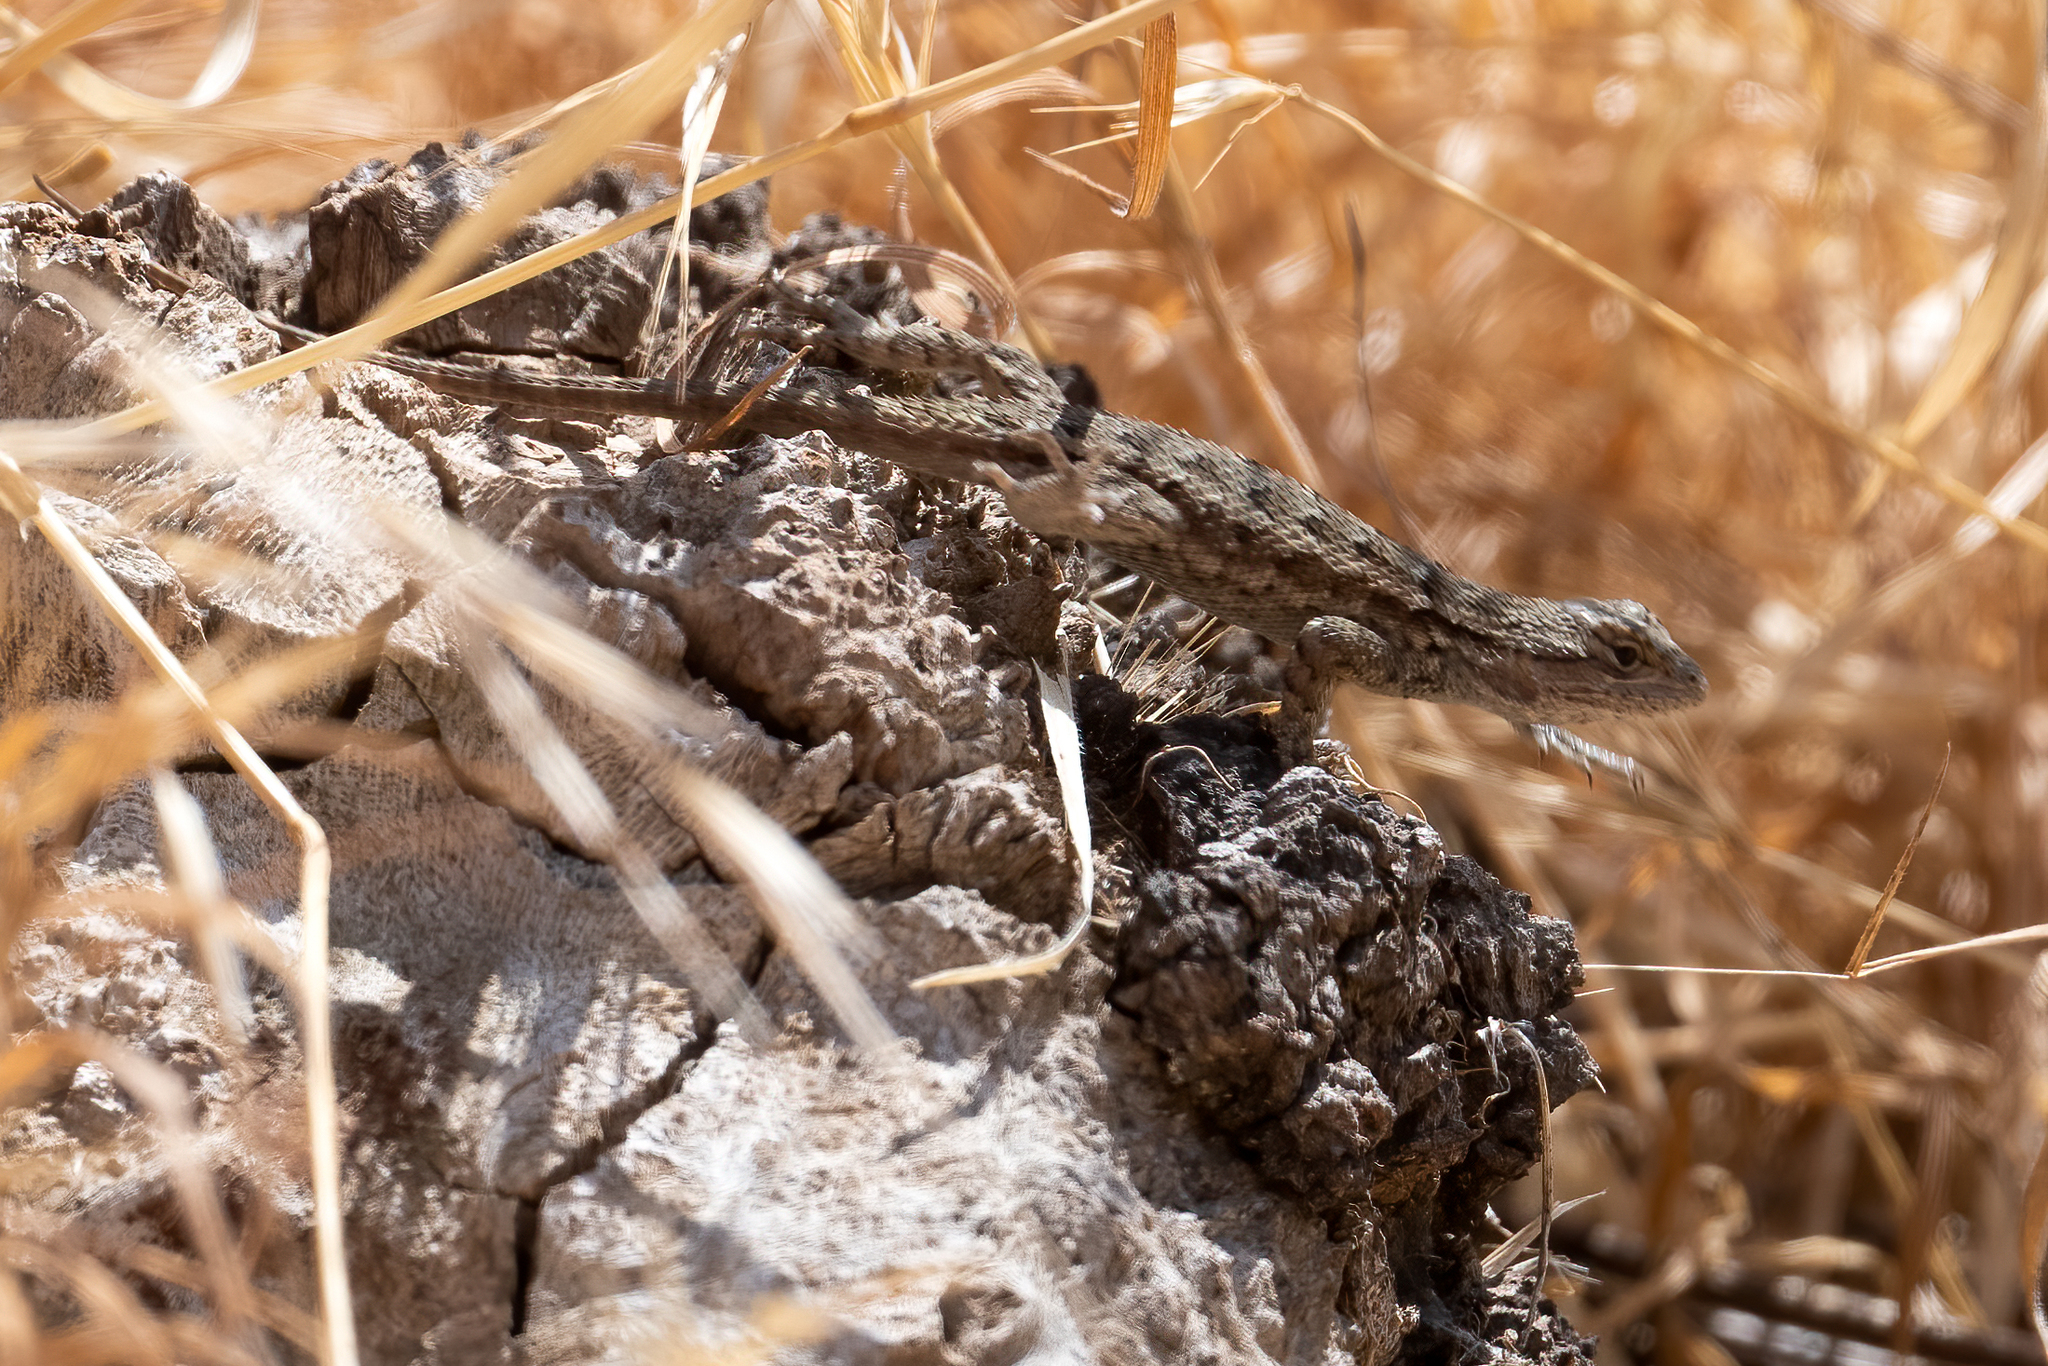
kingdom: Animalia
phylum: Chordata
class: Squamata
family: Phrynosomatidae
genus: Sceloporus
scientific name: Sceloporus occidentalis
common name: Western fence lizard
